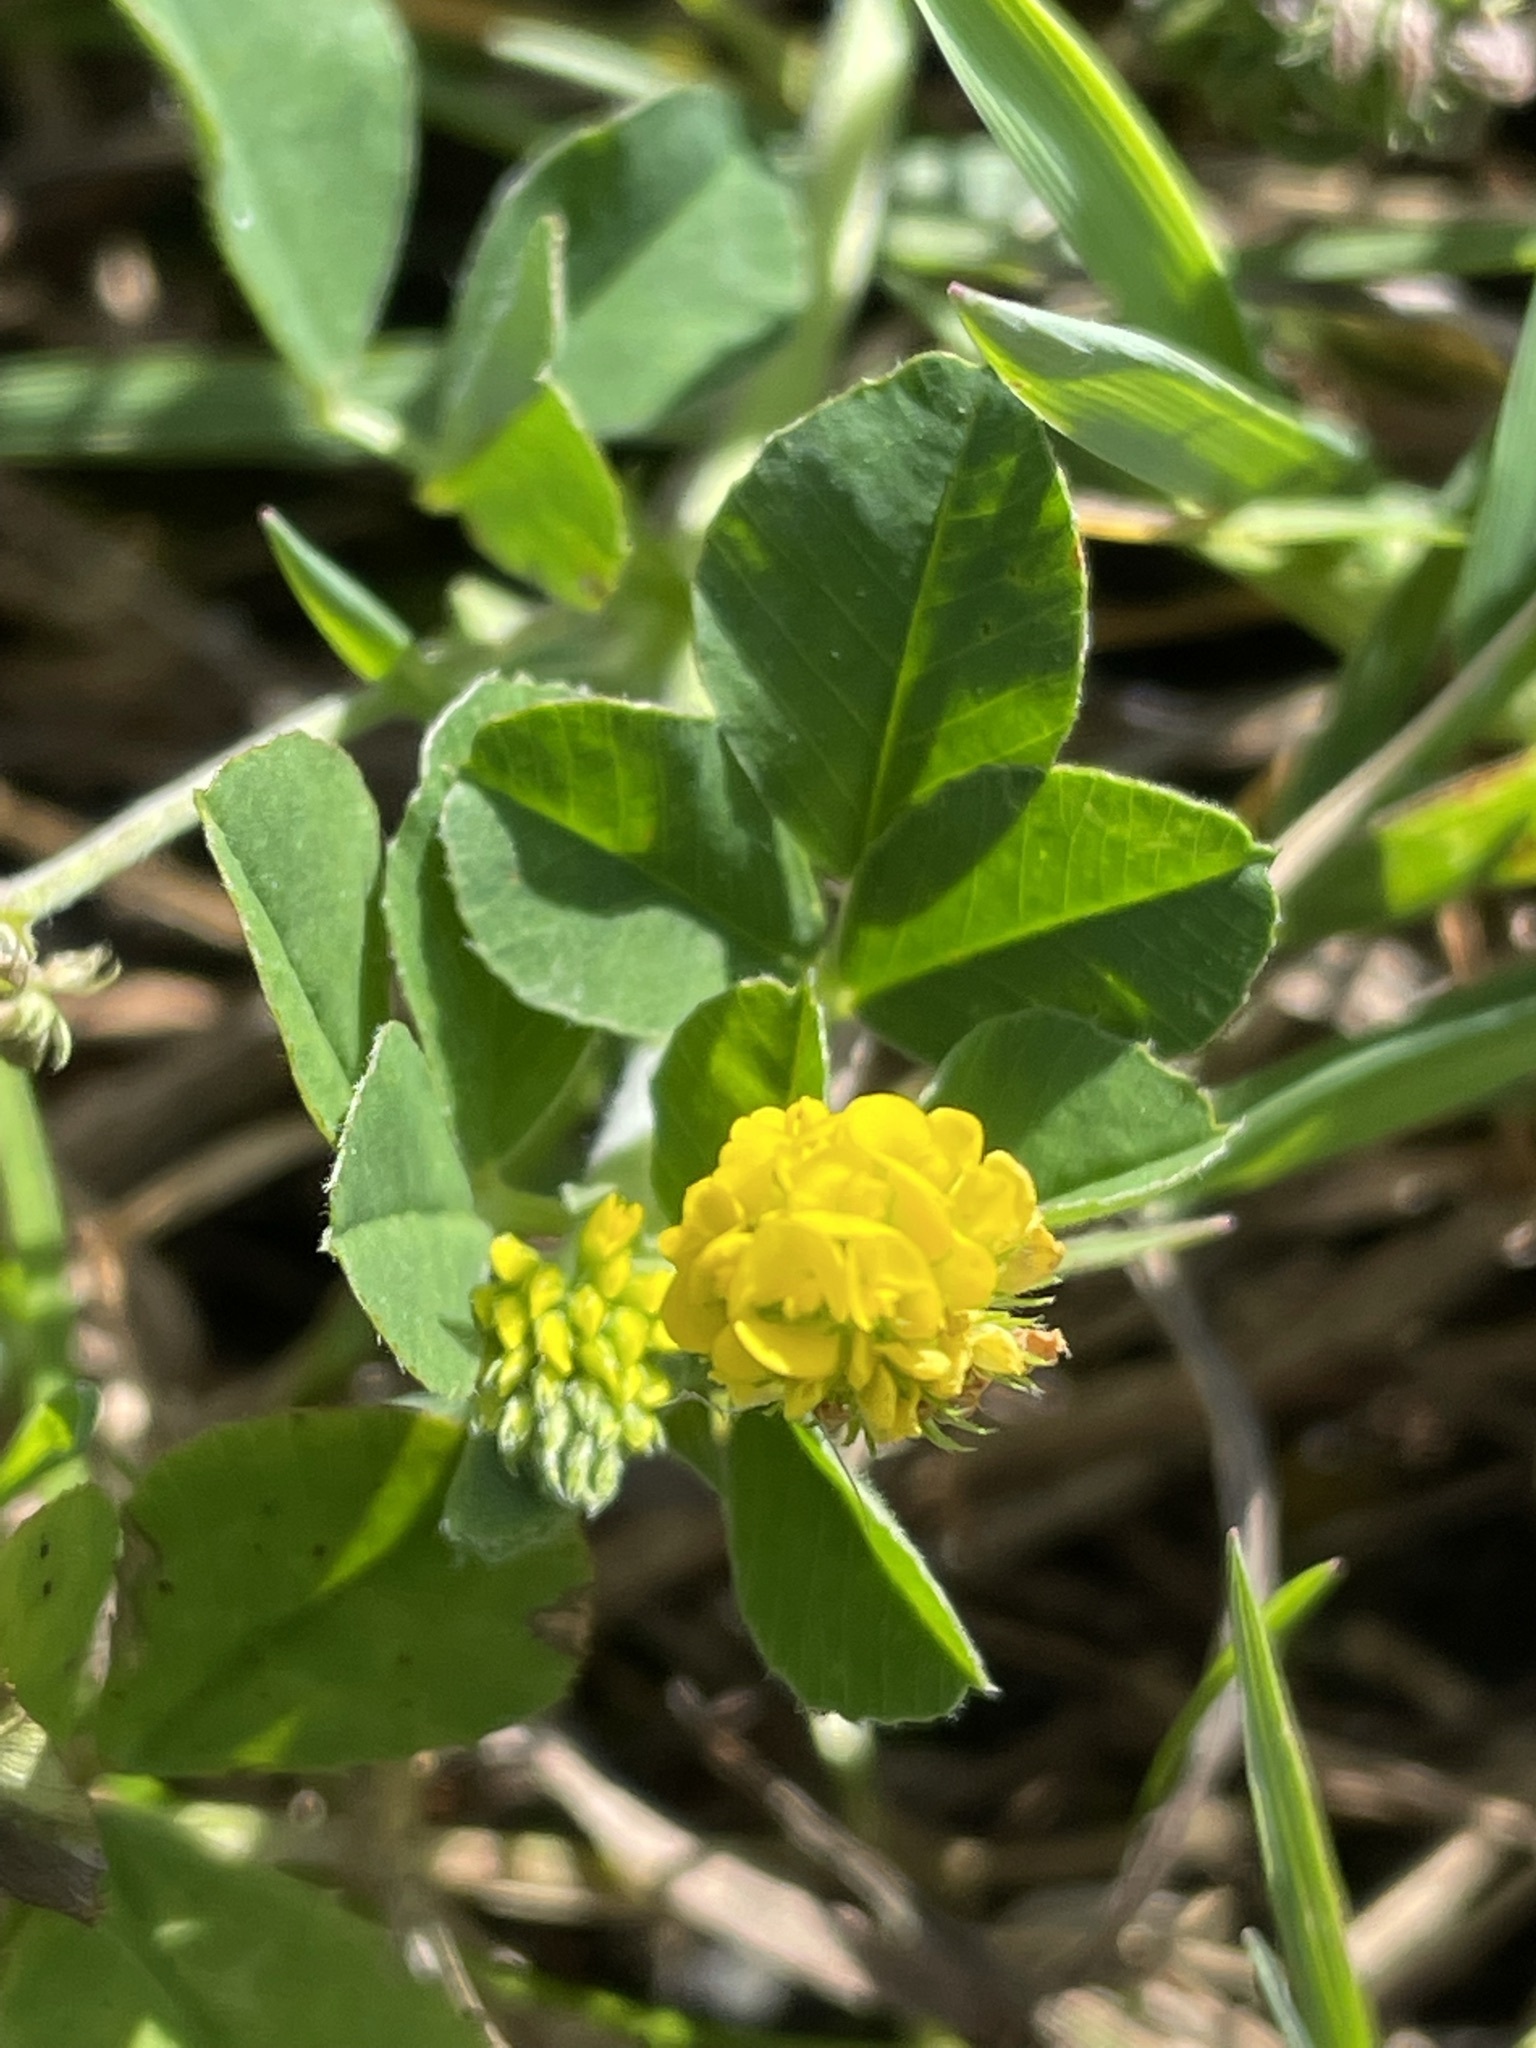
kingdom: Plantae
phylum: Tracheophyta
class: Magnoliopsida
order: Fabales
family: Fabaceae
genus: Medicago
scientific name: Medicago lupulina
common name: Black medick
